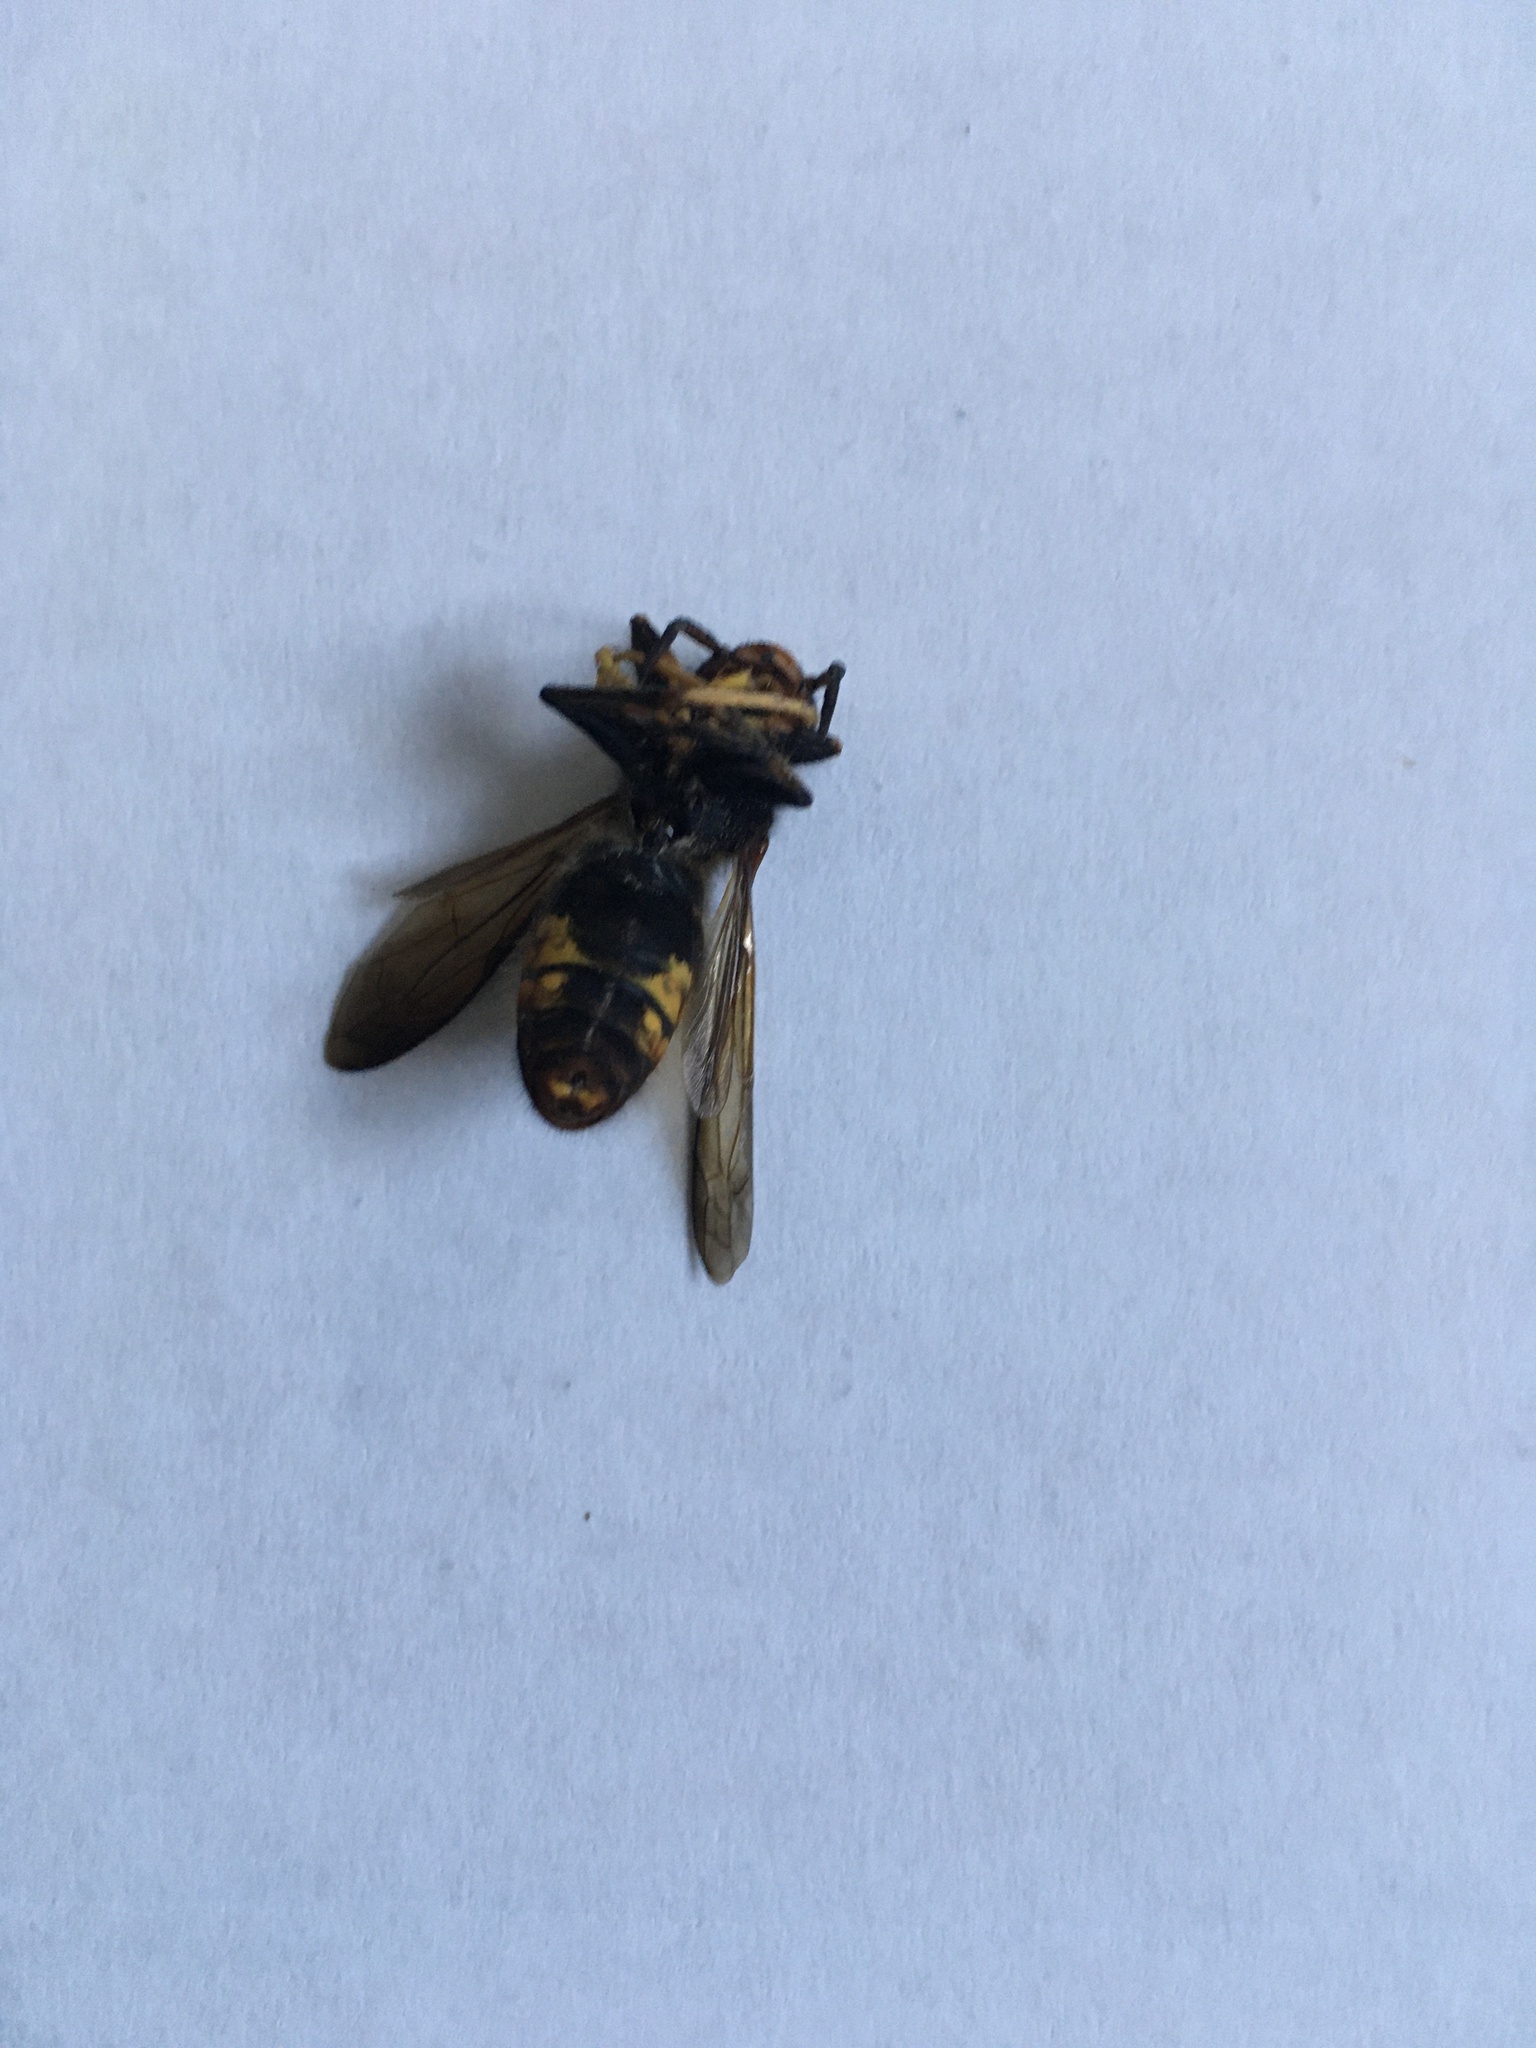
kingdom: Animalia
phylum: Arthropoda
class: Insecta
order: Hymenoptera
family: Vespidae
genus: Vespa
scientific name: Vespa velutina
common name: Asian hornet
